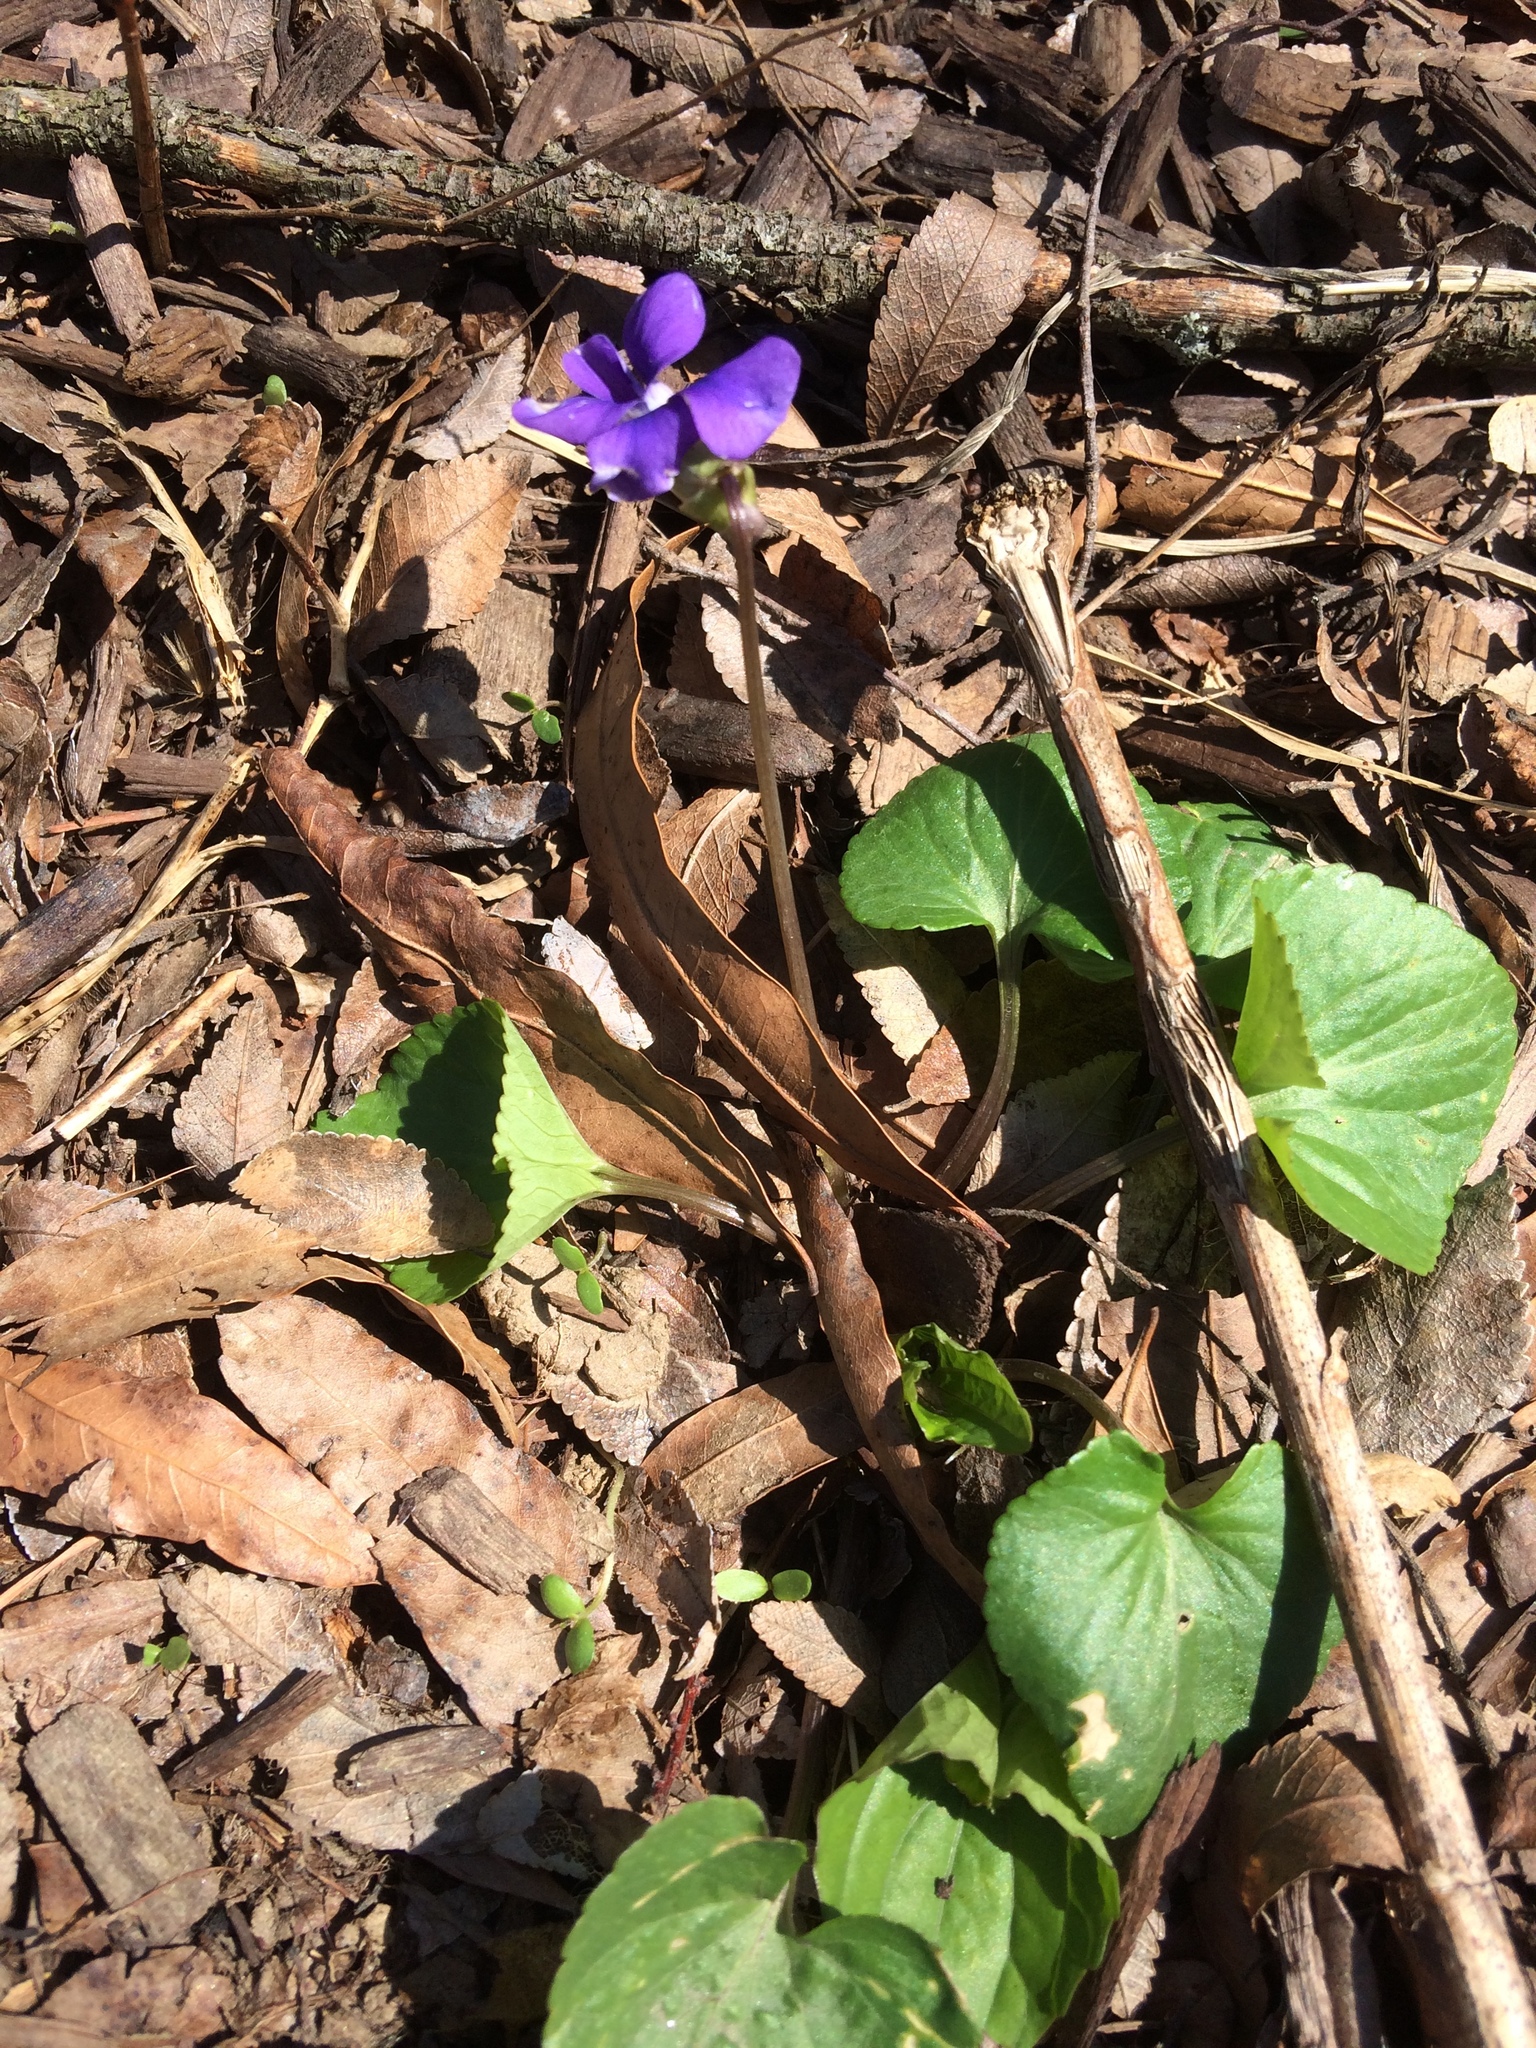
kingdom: Plantae
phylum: Tracheophyta
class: Magnoliopsida
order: Malpighiales
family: Violaceae
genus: Viola
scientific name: Viola sororia
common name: Dooryard violet
